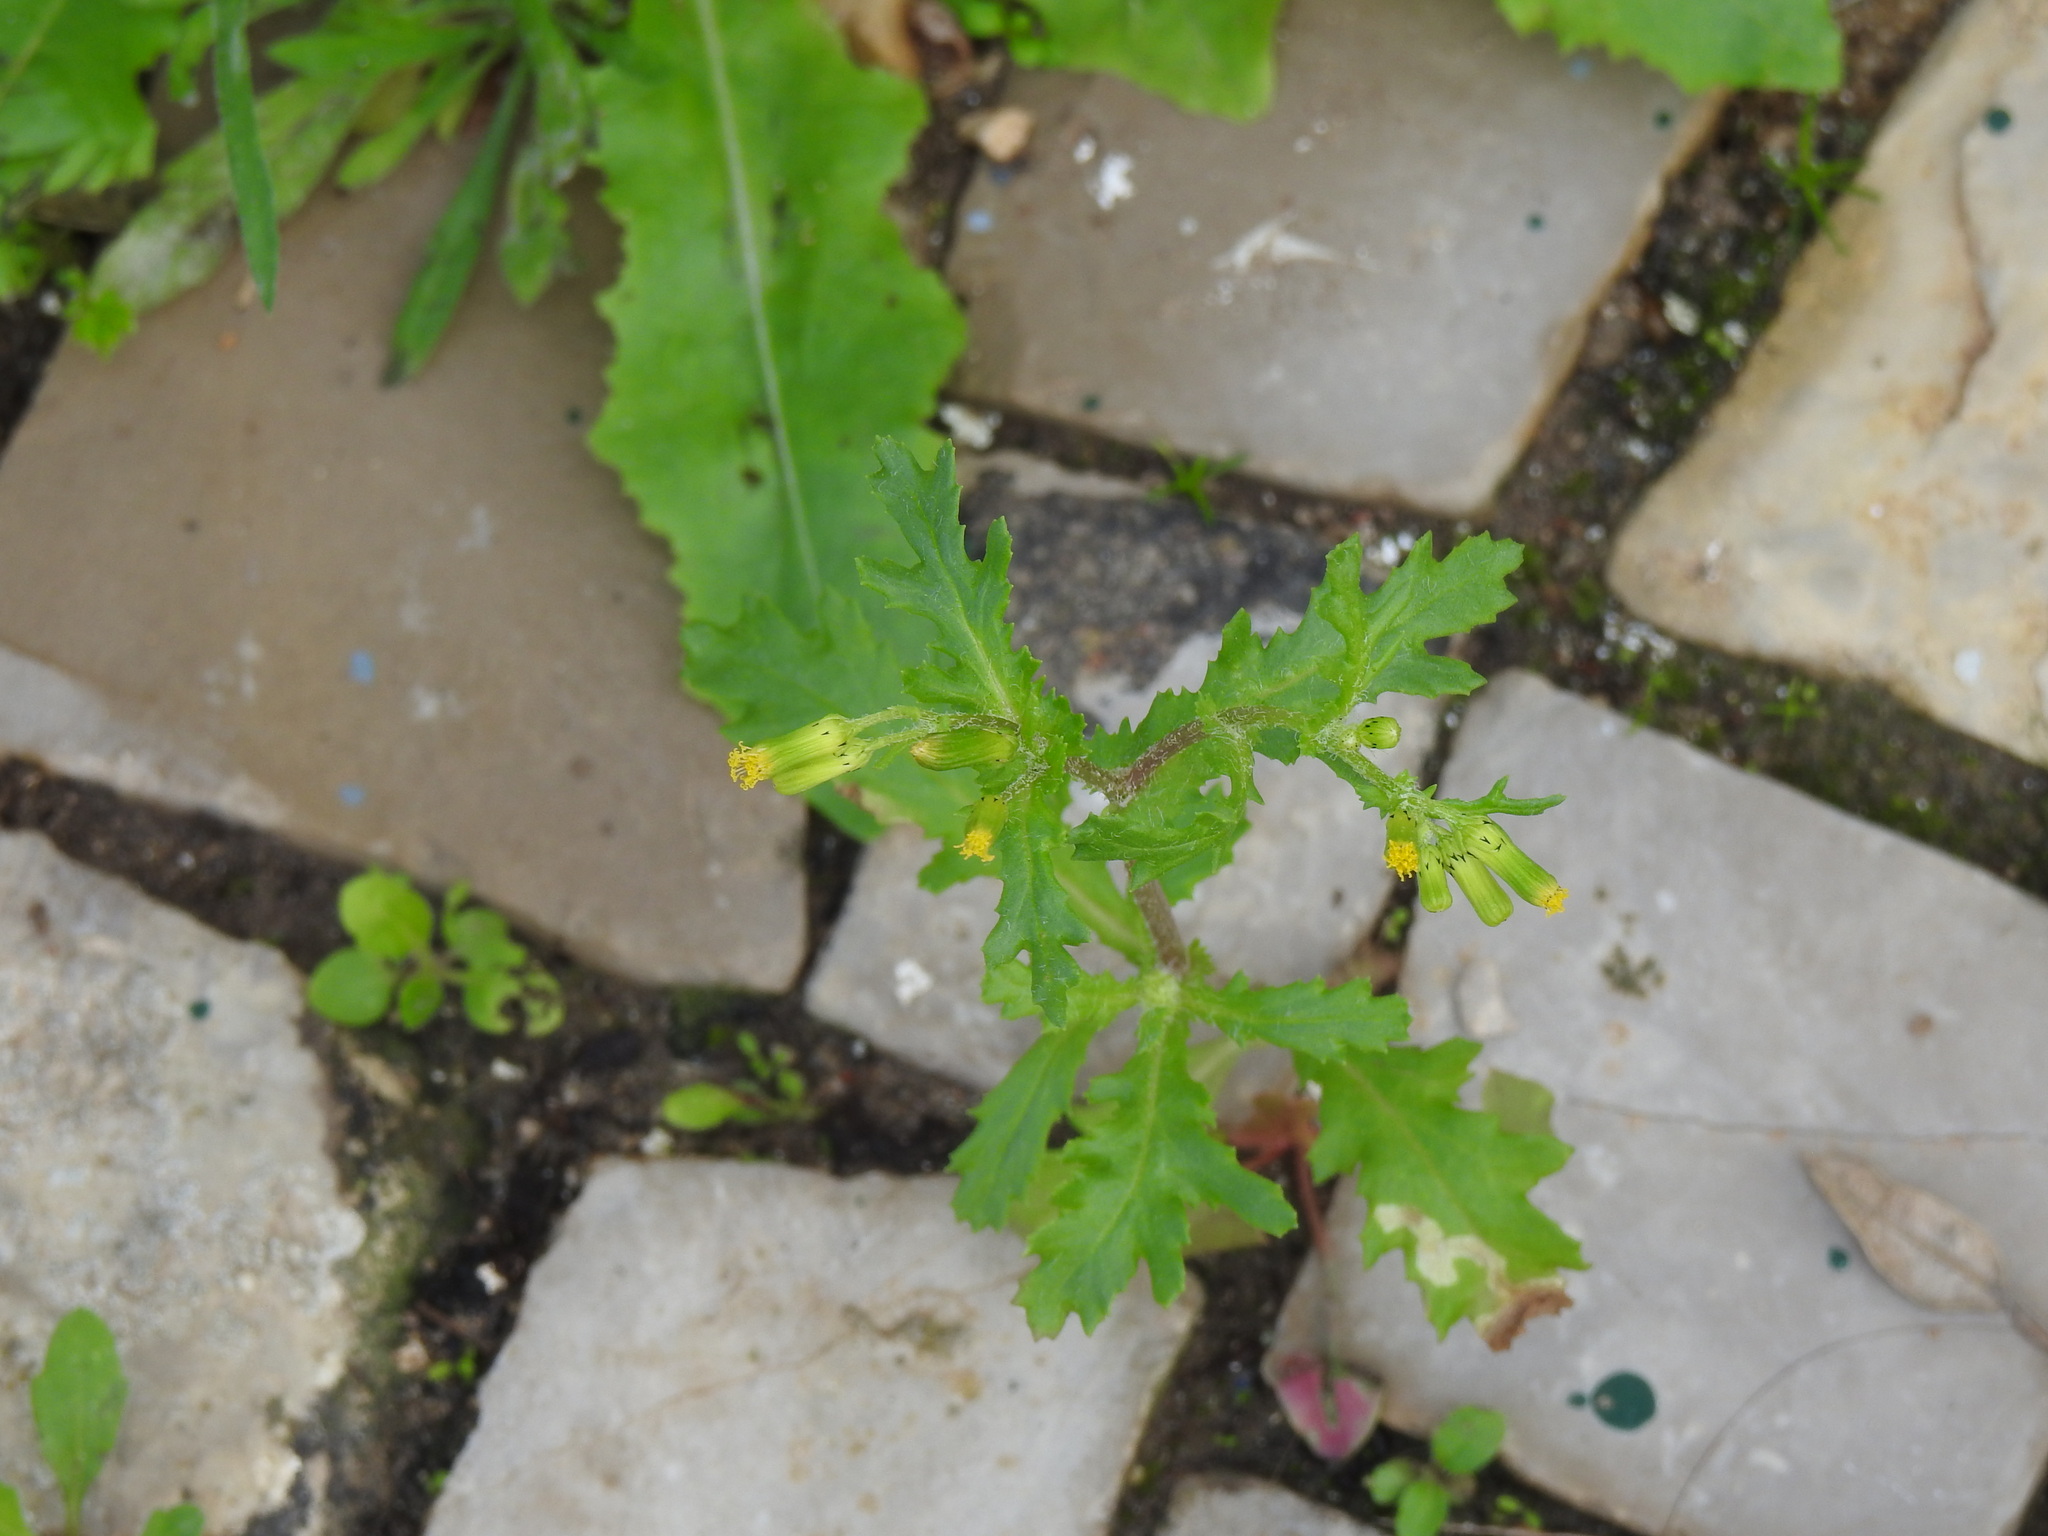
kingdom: Plantae
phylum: Tracheophyta
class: Magnoliopsida
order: Asterales
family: Asteraceae
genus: Senecio
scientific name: Senecio vulgaris
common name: Old-man-in-the-spring
